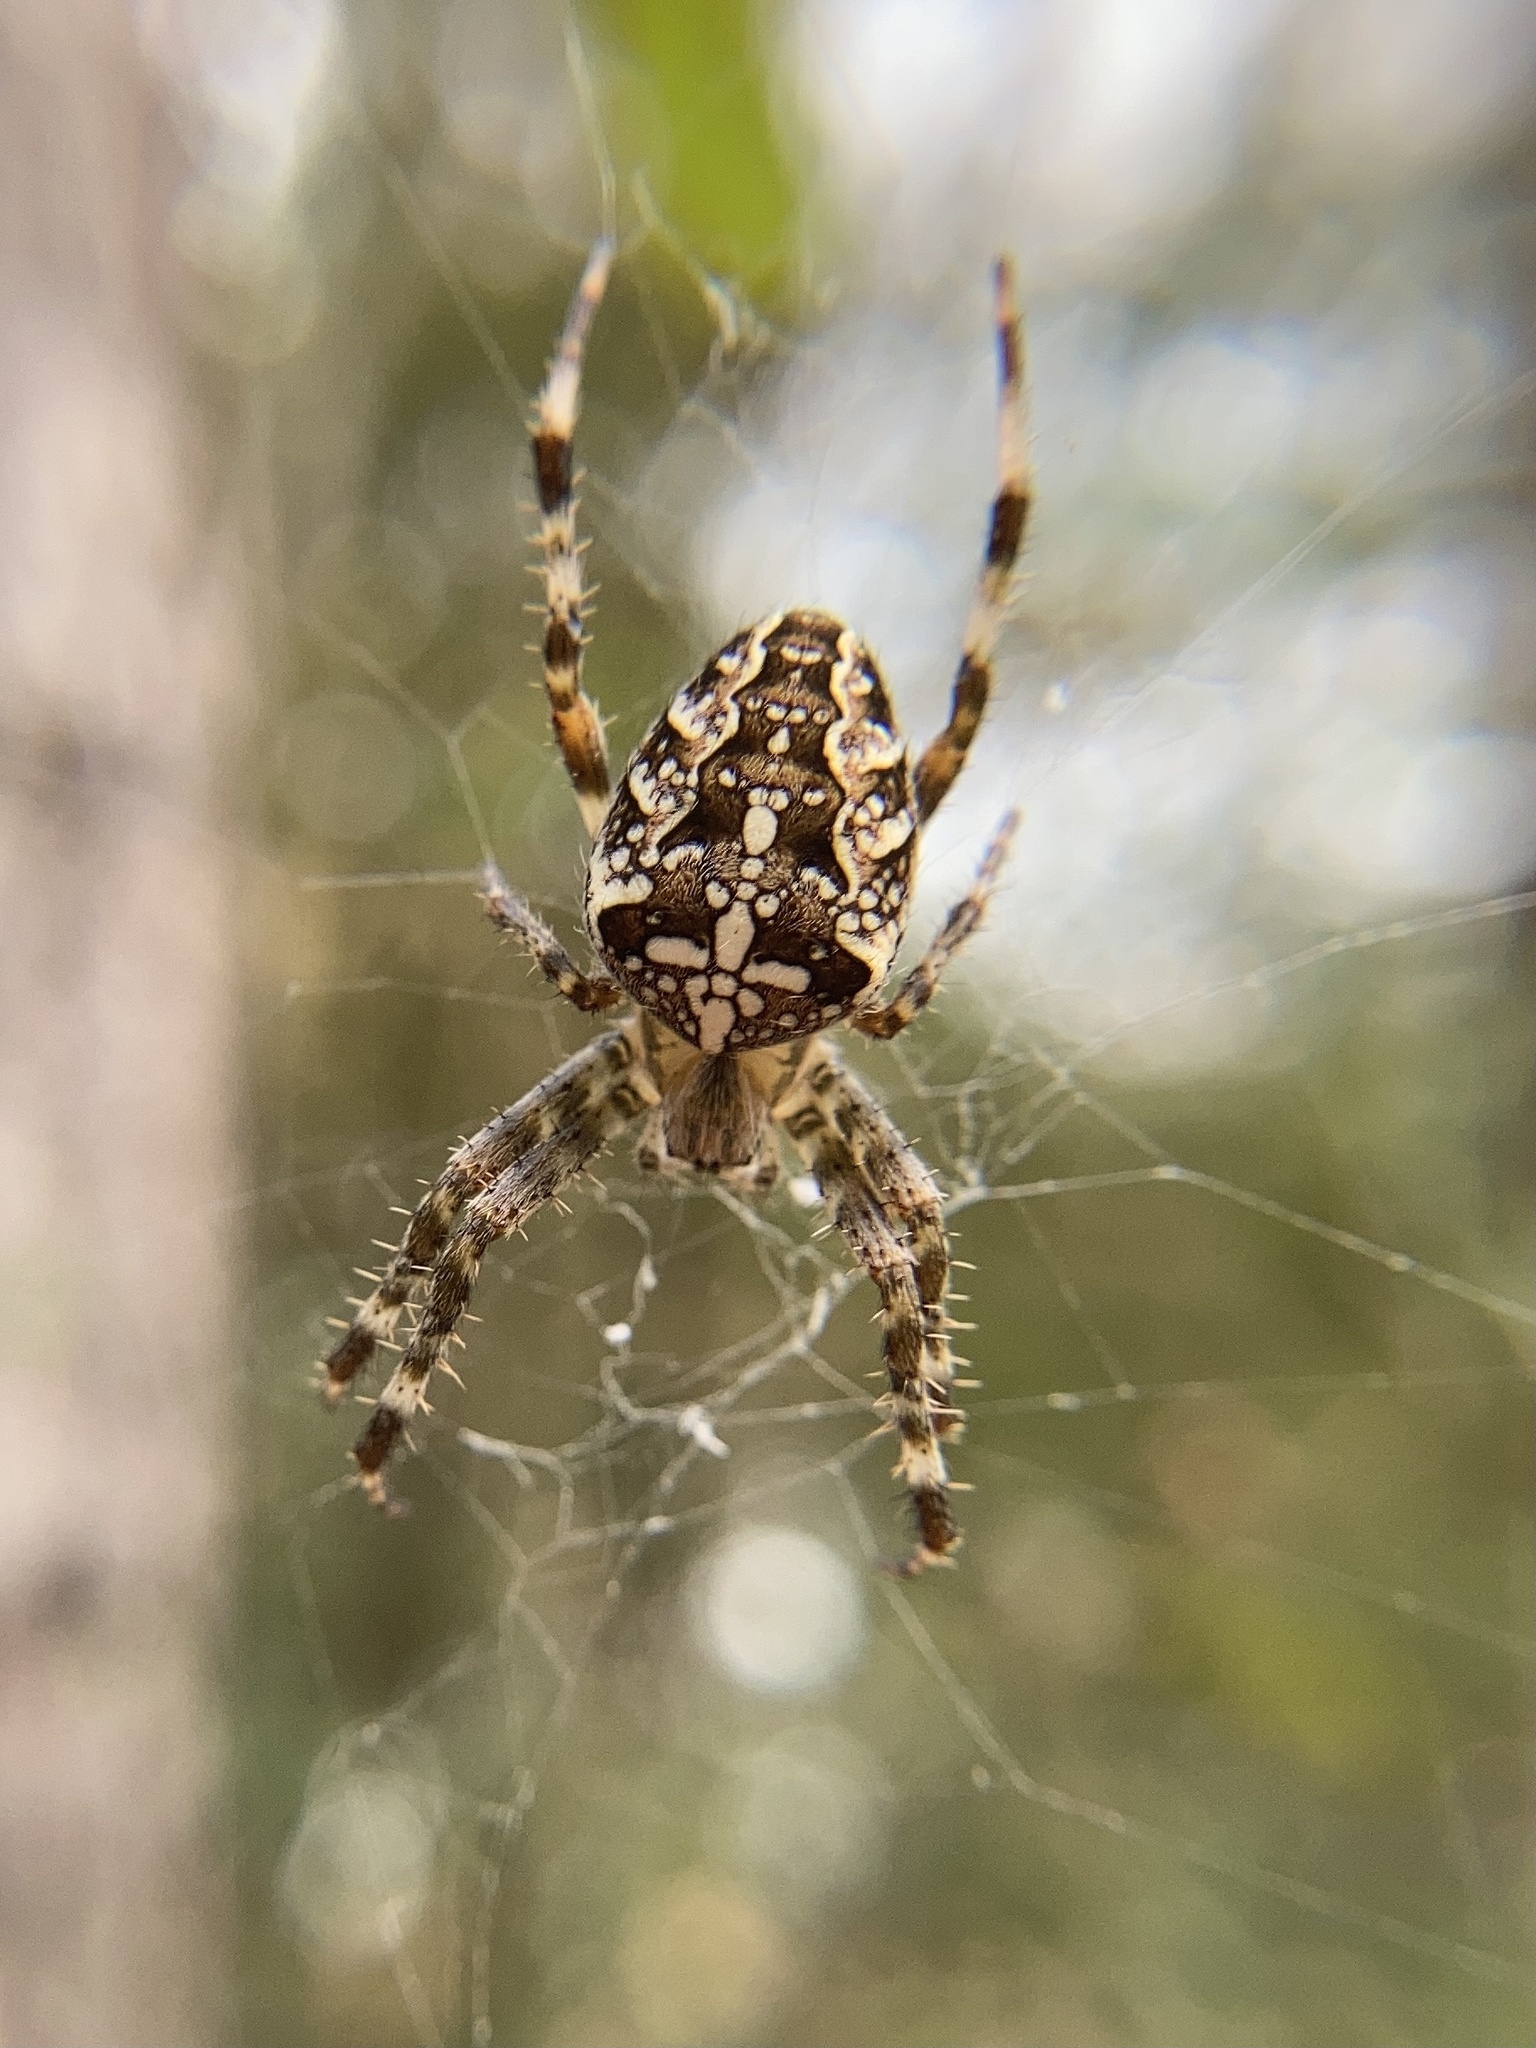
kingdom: Animalia
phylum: Arthropoda
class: Arachnida
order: Araneae
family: Araneidae
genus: Araneus
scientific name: Araneus diadematus
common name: Cross orbweaver
